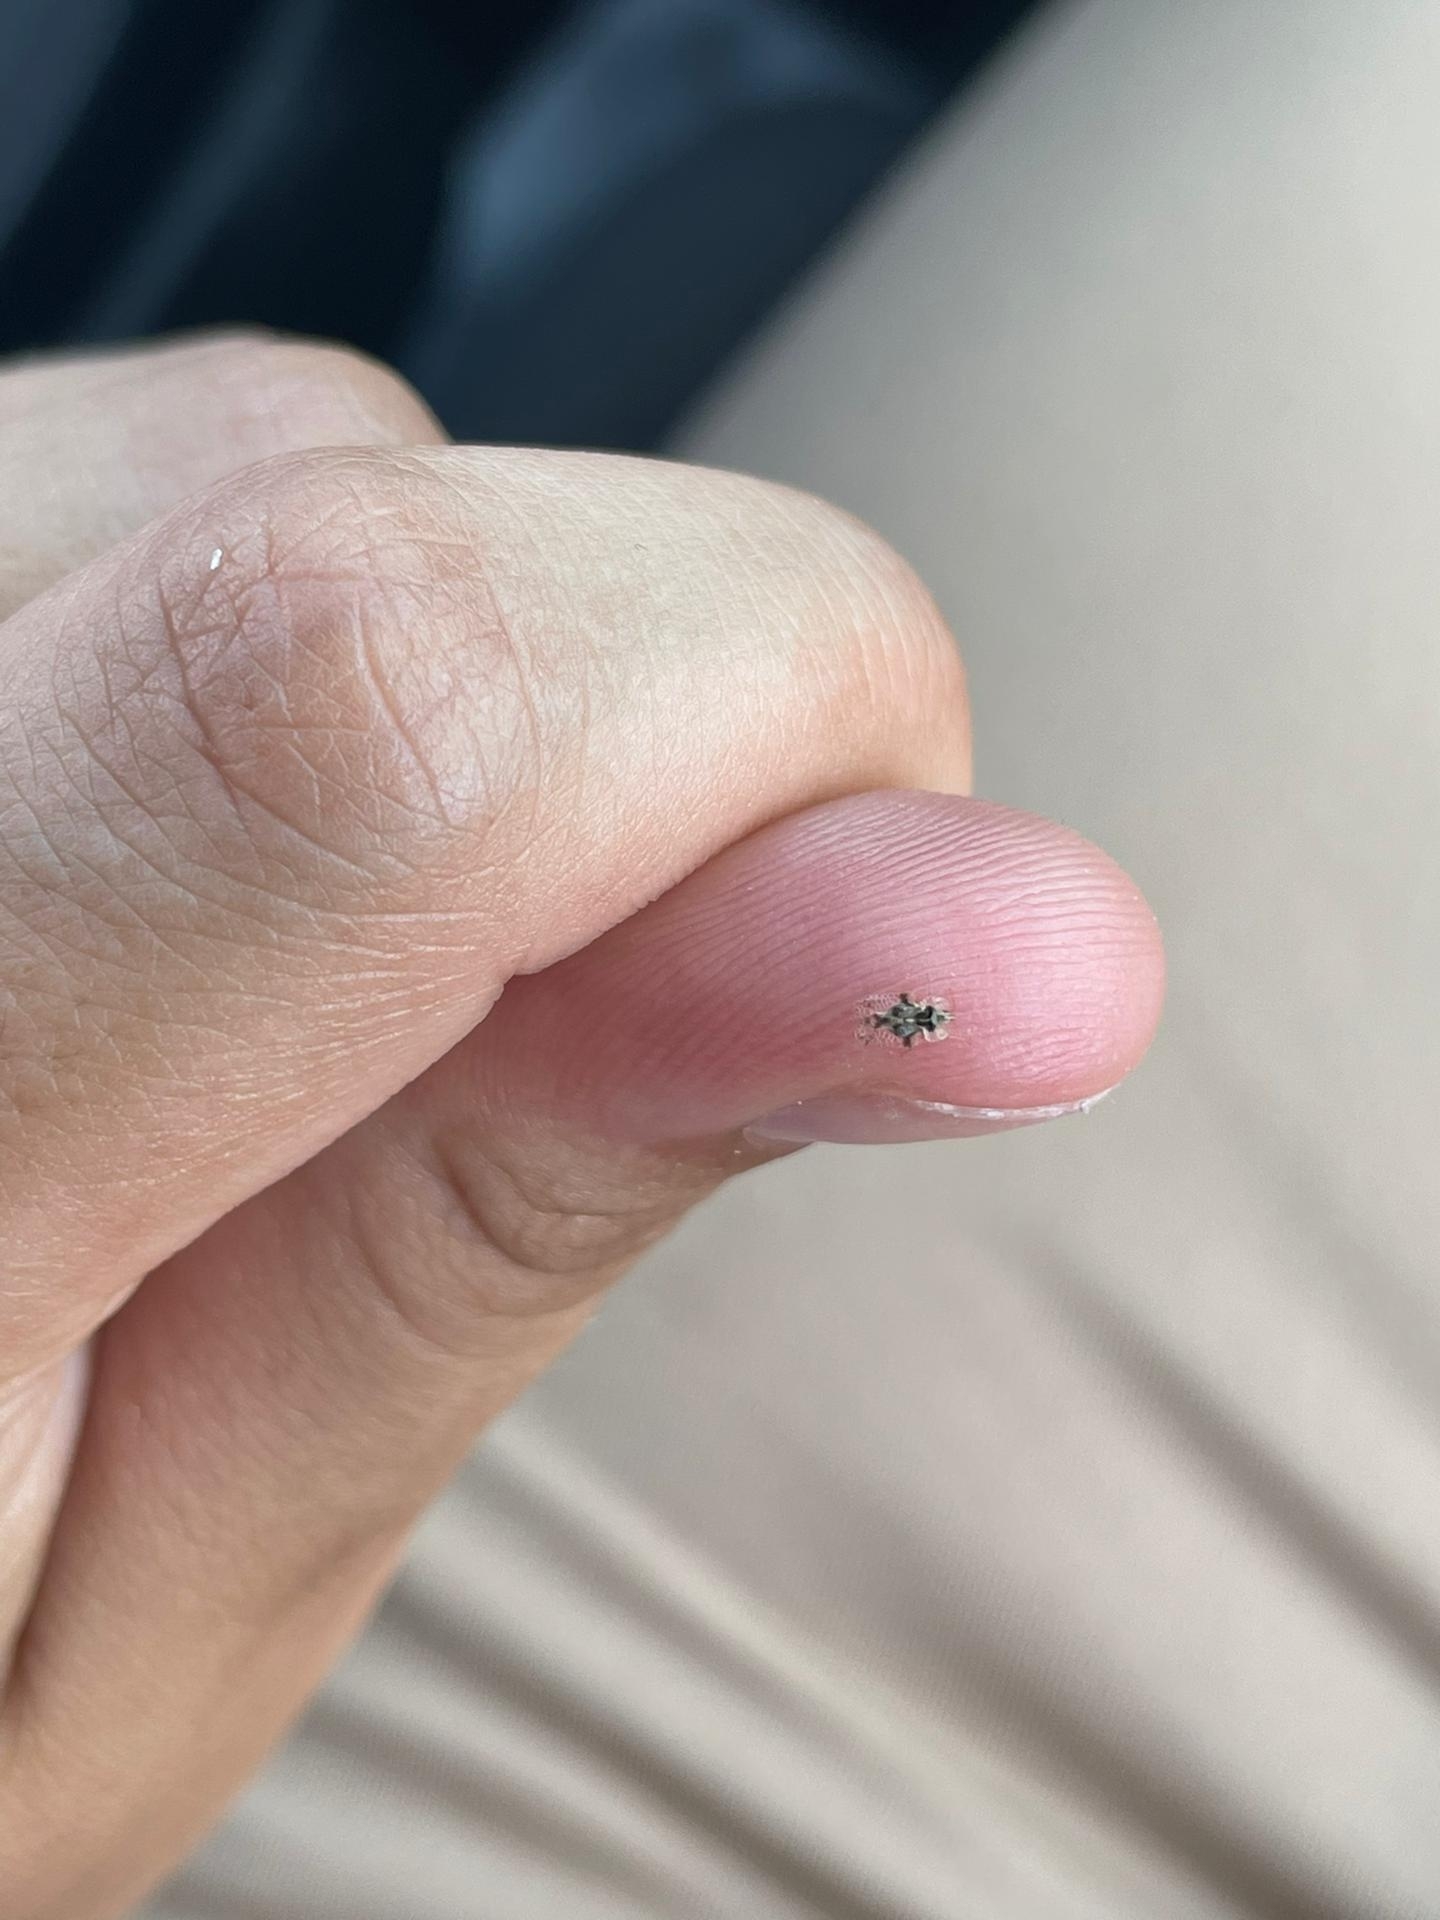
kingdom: Animalia
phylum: Arthropoda
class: Insecta
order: Hemiptera
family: Tingidae
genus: Corythucha
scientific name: Corythucha arcuata
